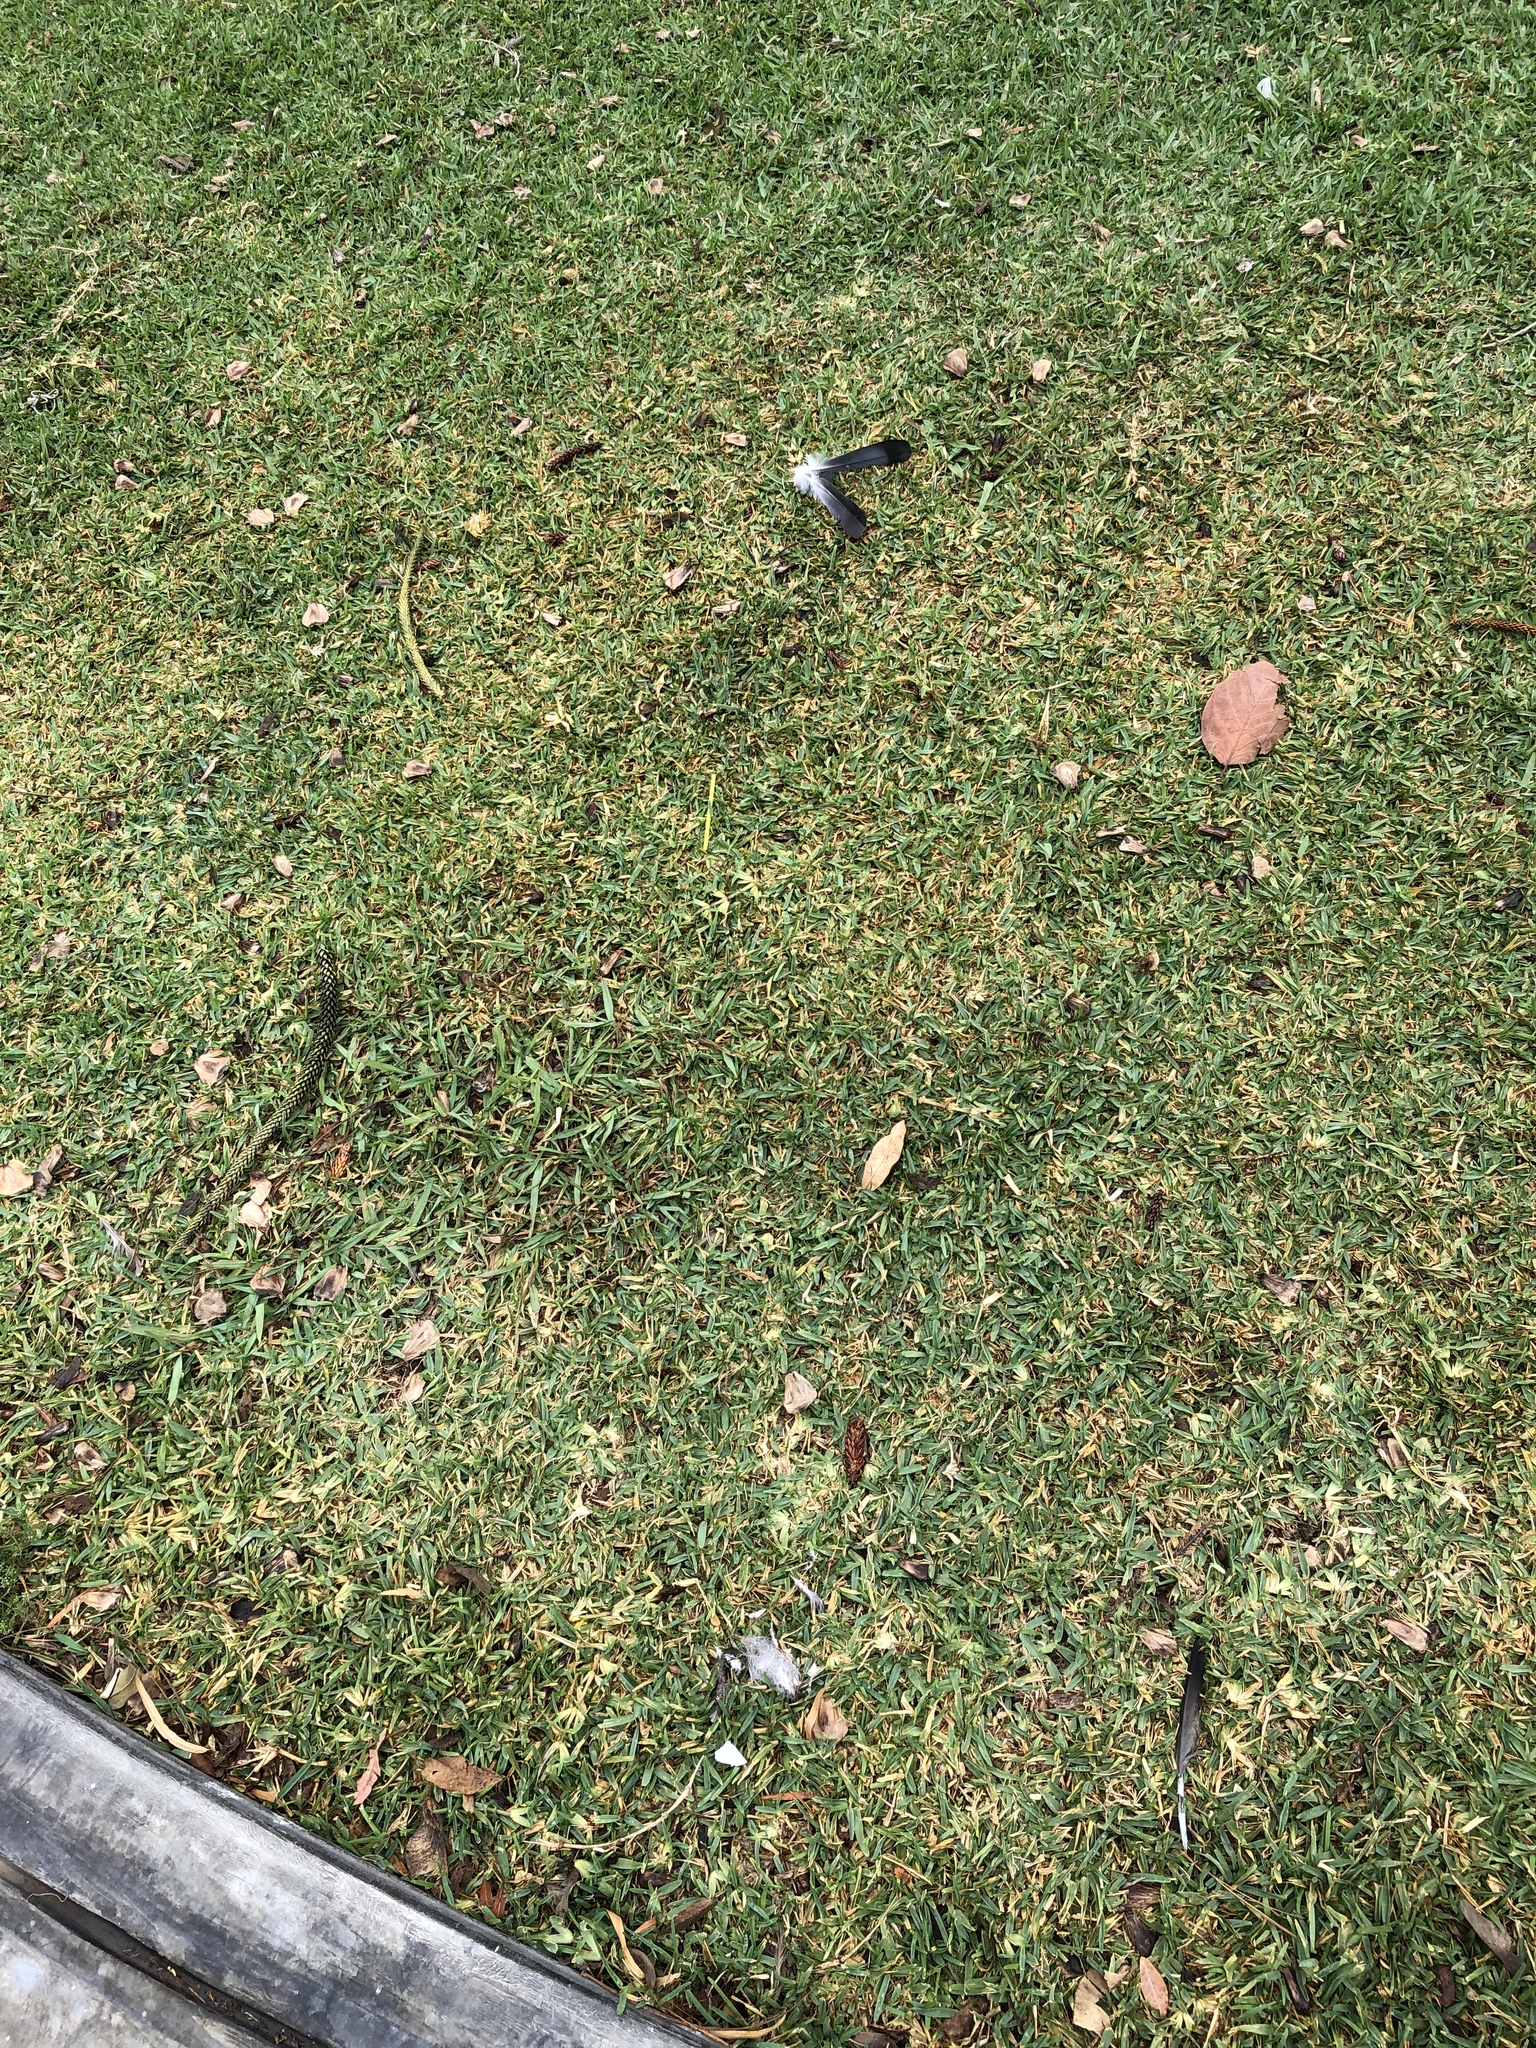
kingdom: Animalia
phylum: Chordata
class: Aves
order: Columbiformes
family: Columbidae
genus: Columba
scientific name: Columba livia
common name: Rock pigeon
